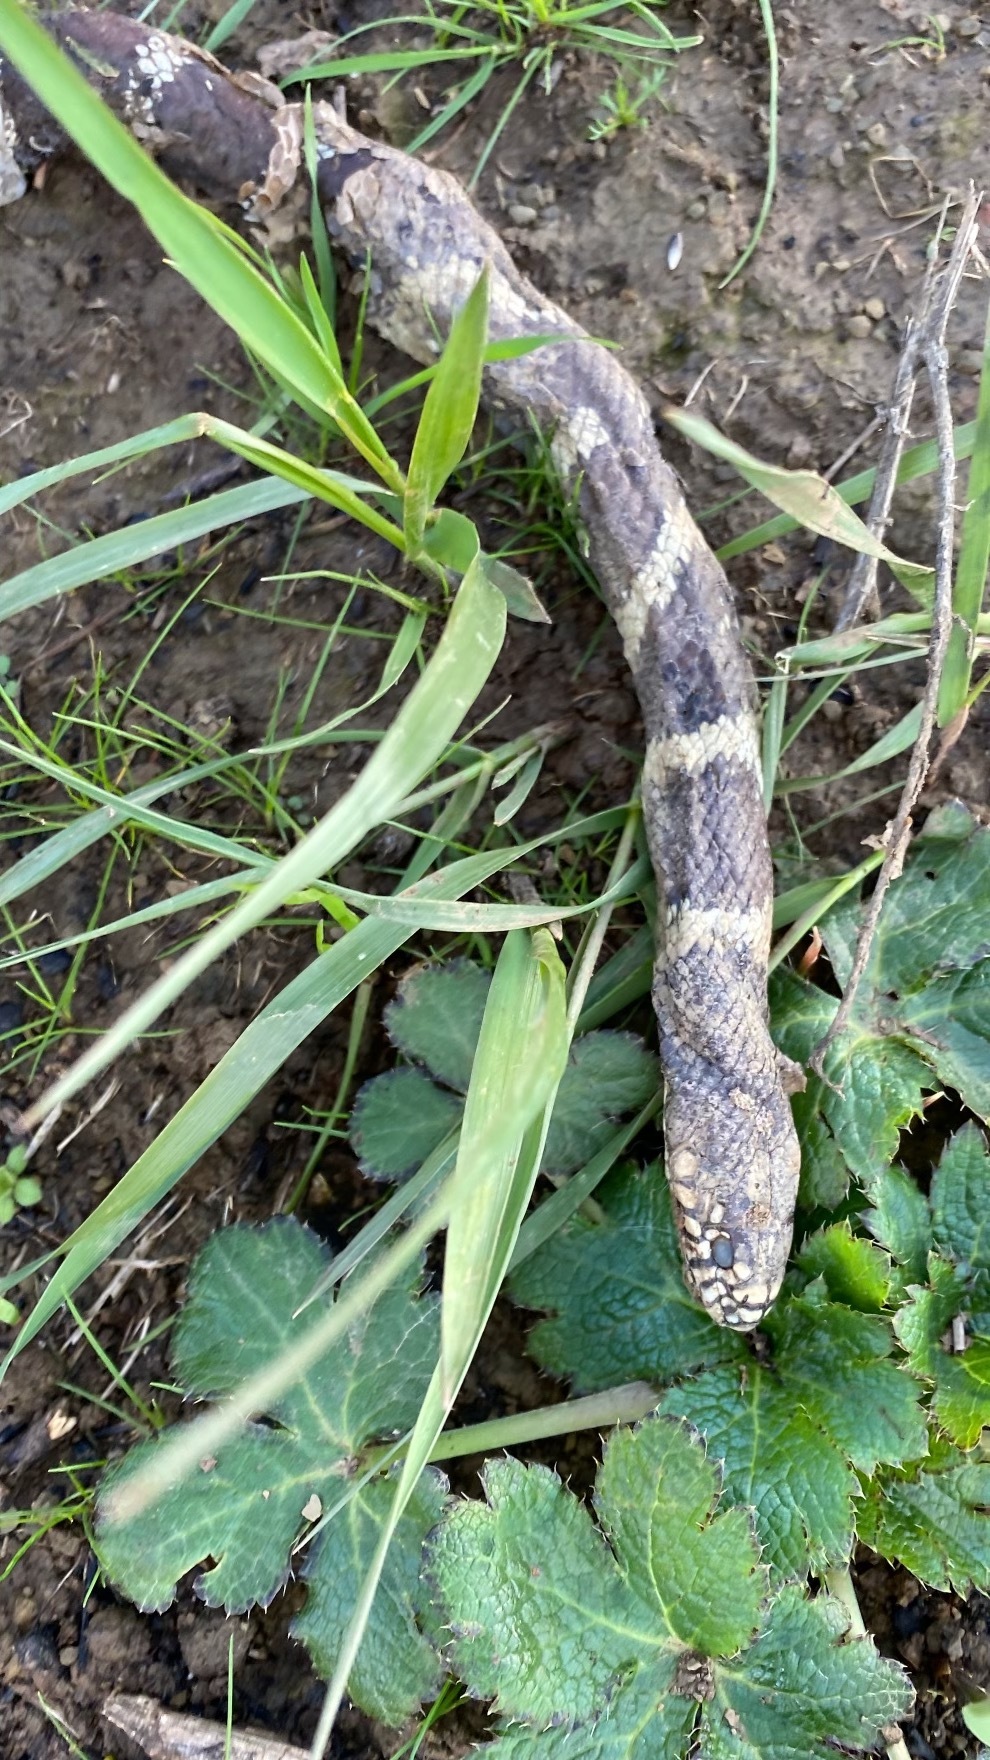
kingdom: Animalia
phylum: Chordata
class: Squamata
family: Colubridae
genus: Lampropeltis
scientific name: Lampropeltis californiae
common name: California kingsnake
